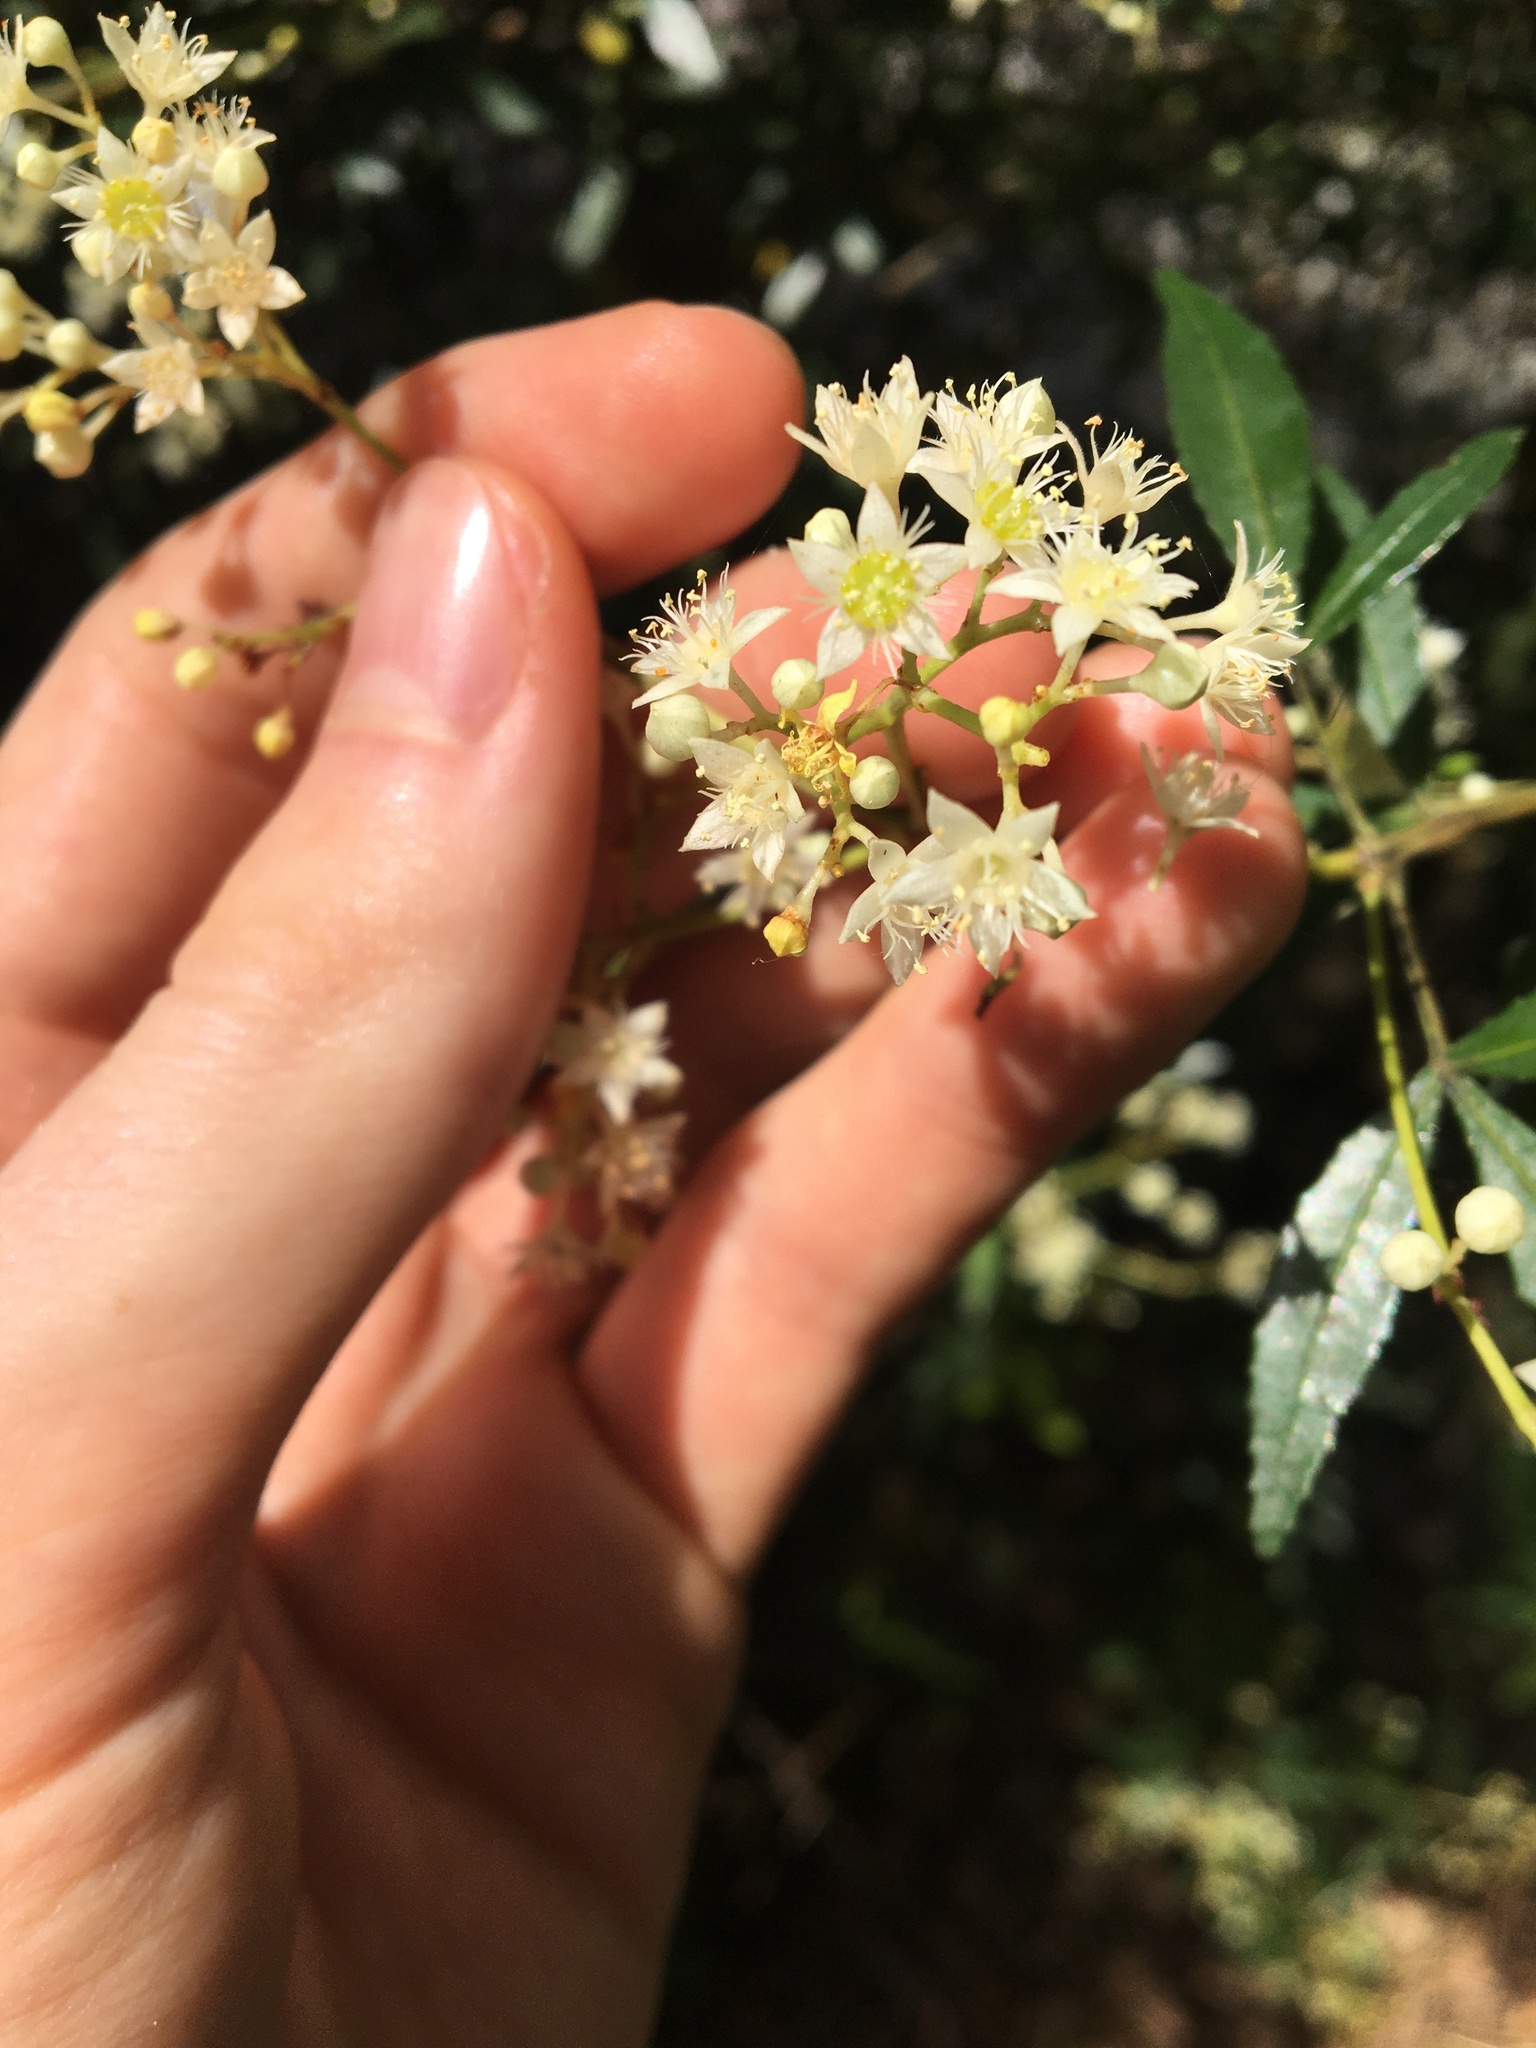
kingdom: Plantae
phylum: Tracheophyta
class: Magnoliopsida
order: Oxalidales
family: Cunoniaceae
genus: Ceratopetalum
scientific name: Ceratopetalum gummiferum
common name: Christmasbush
